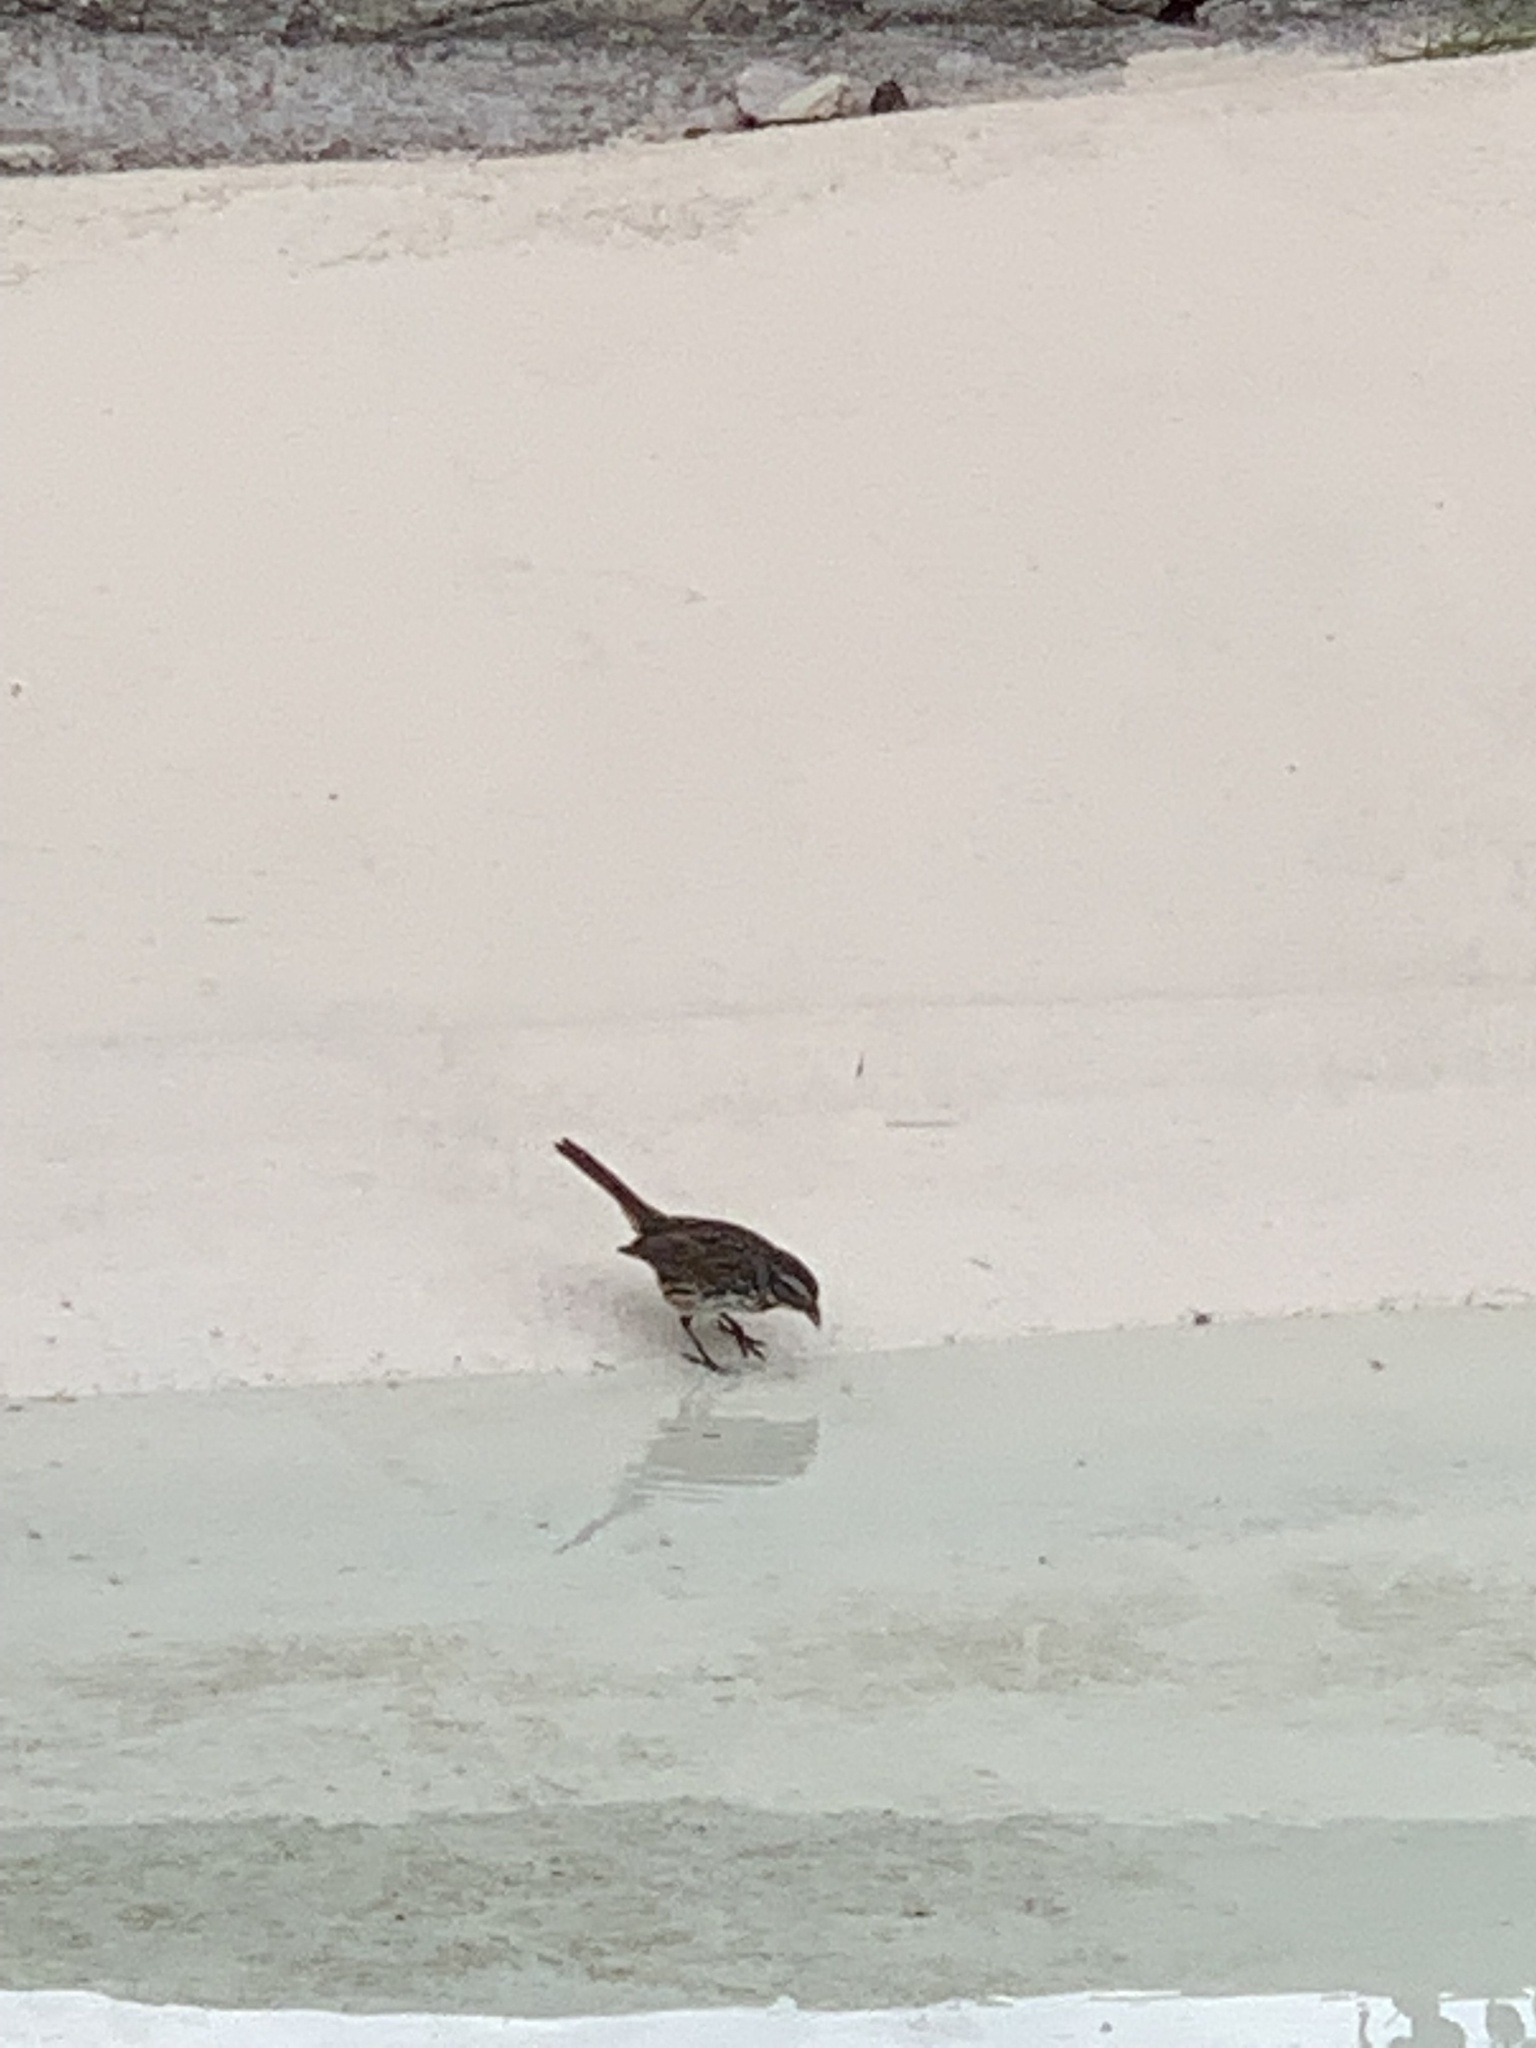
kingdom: Animalia
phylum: Chordata
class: Aves
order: Passeriformes
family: Passerellidae
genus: Melospiza
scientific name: Melospiza melodia
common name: Song sparrow
